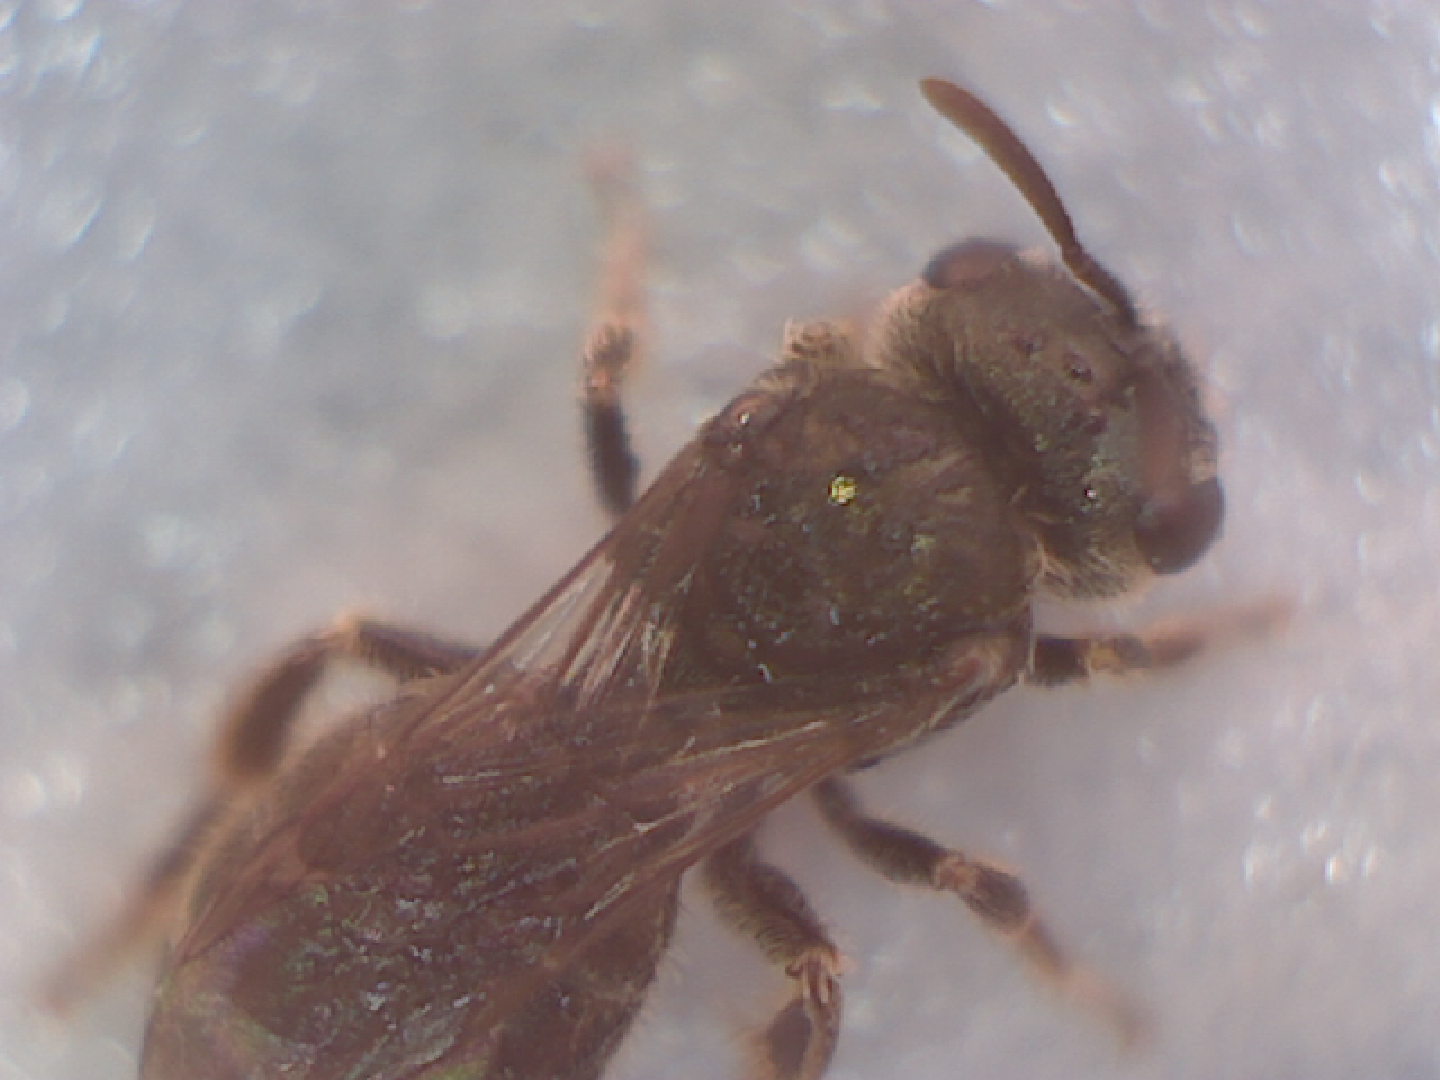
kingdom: Animalia
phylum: Arthropoda
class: Insecta
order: Hymenoptera
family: Halictidae
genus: Halictus
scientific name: Halictus tripartitus
